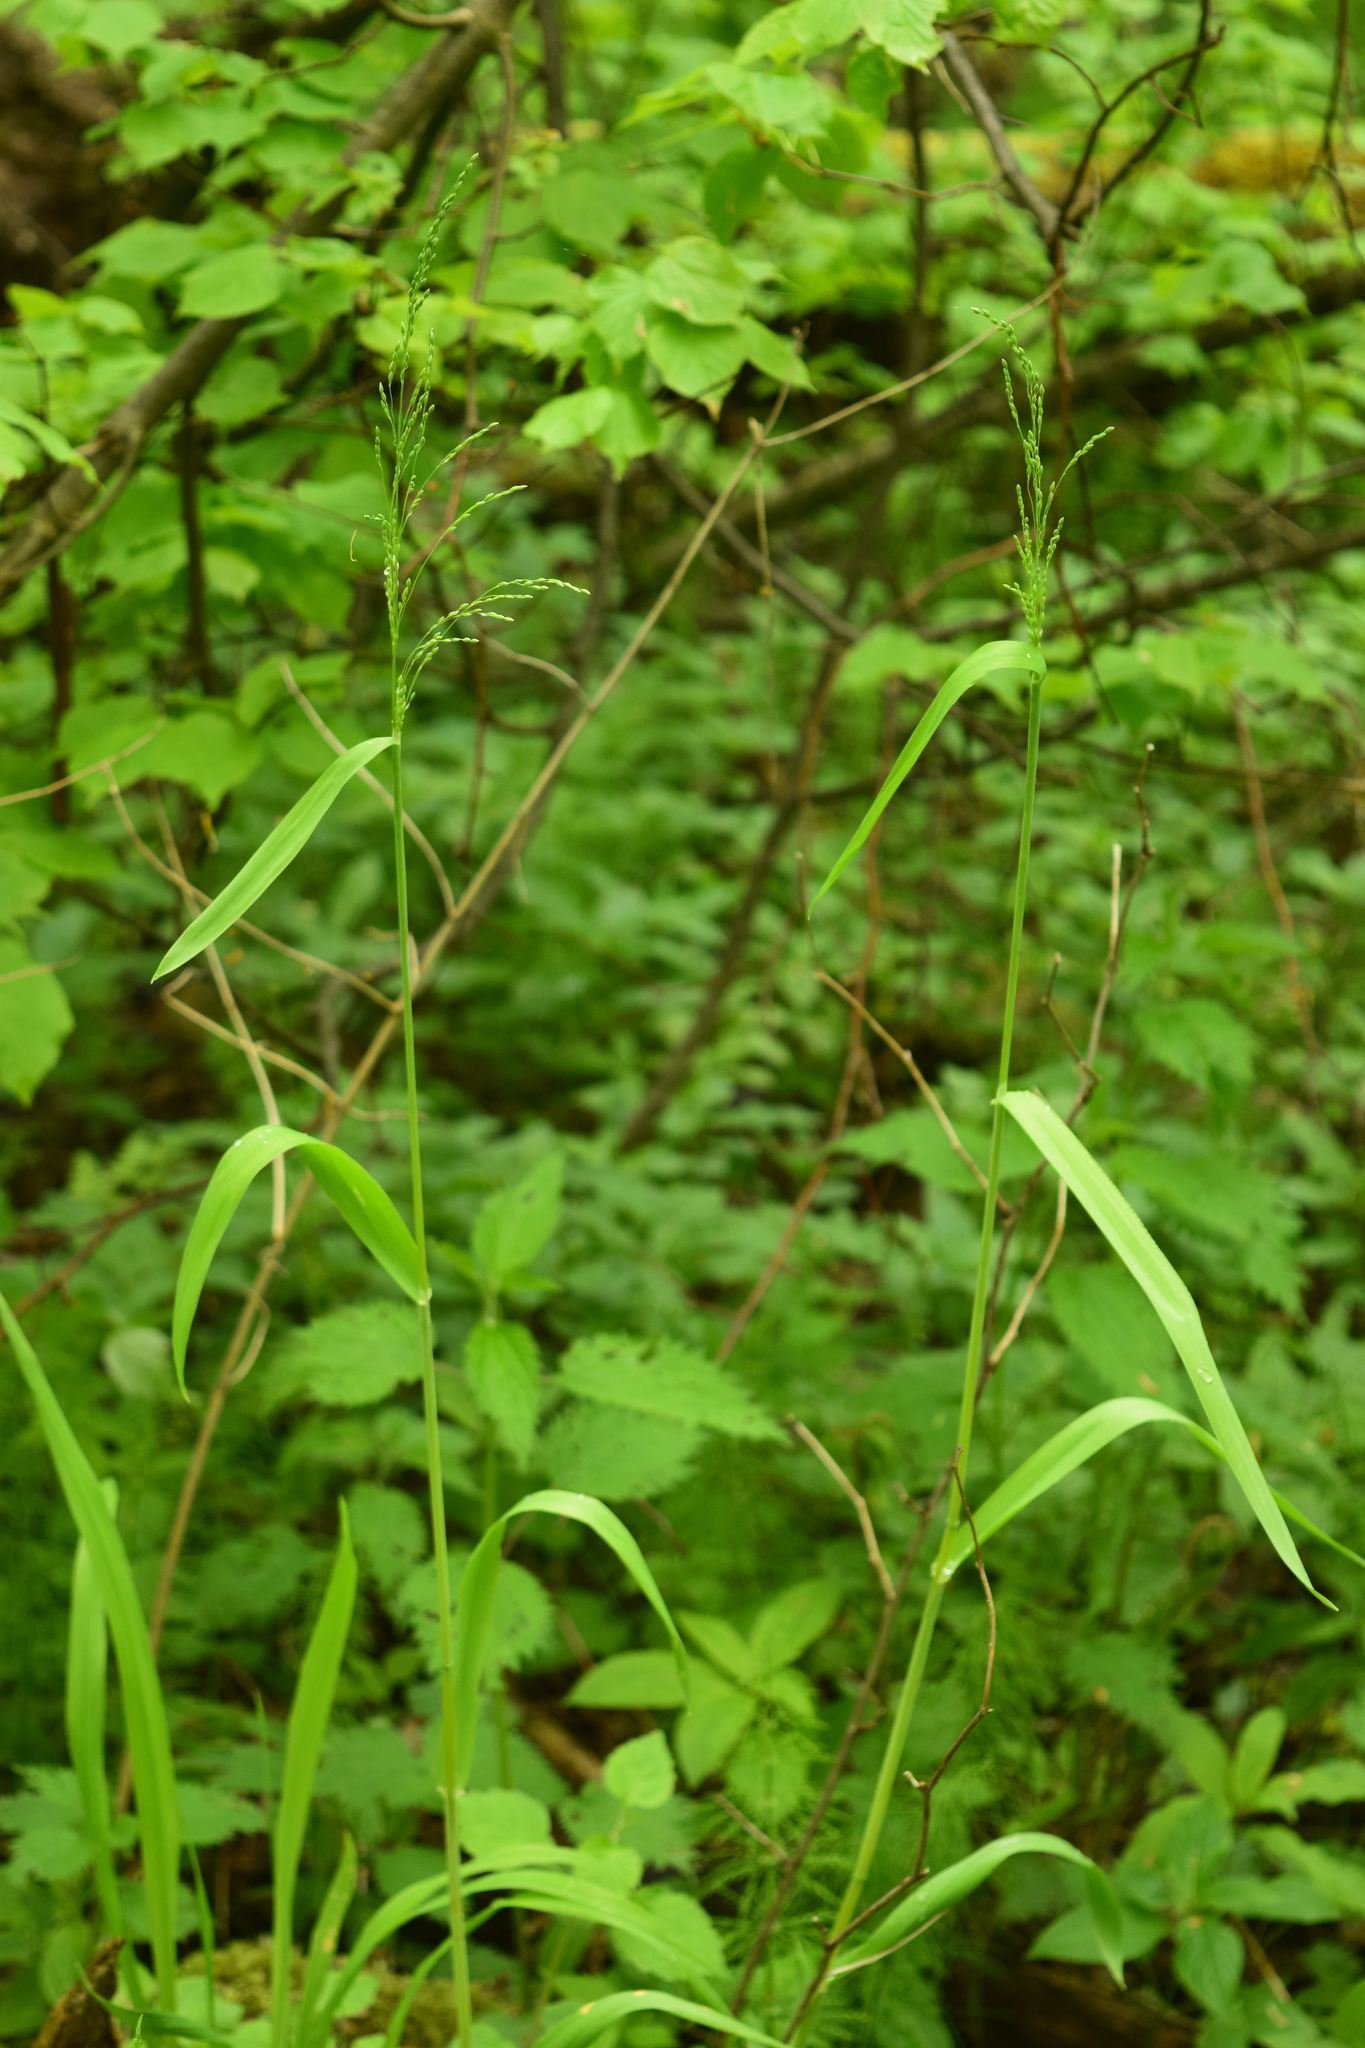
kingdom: Plantae
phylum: Tracheophyta
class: Liliopsida
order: Poales
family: Poaceae
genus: Milium
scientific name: Milium effusum
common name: Wood millet
